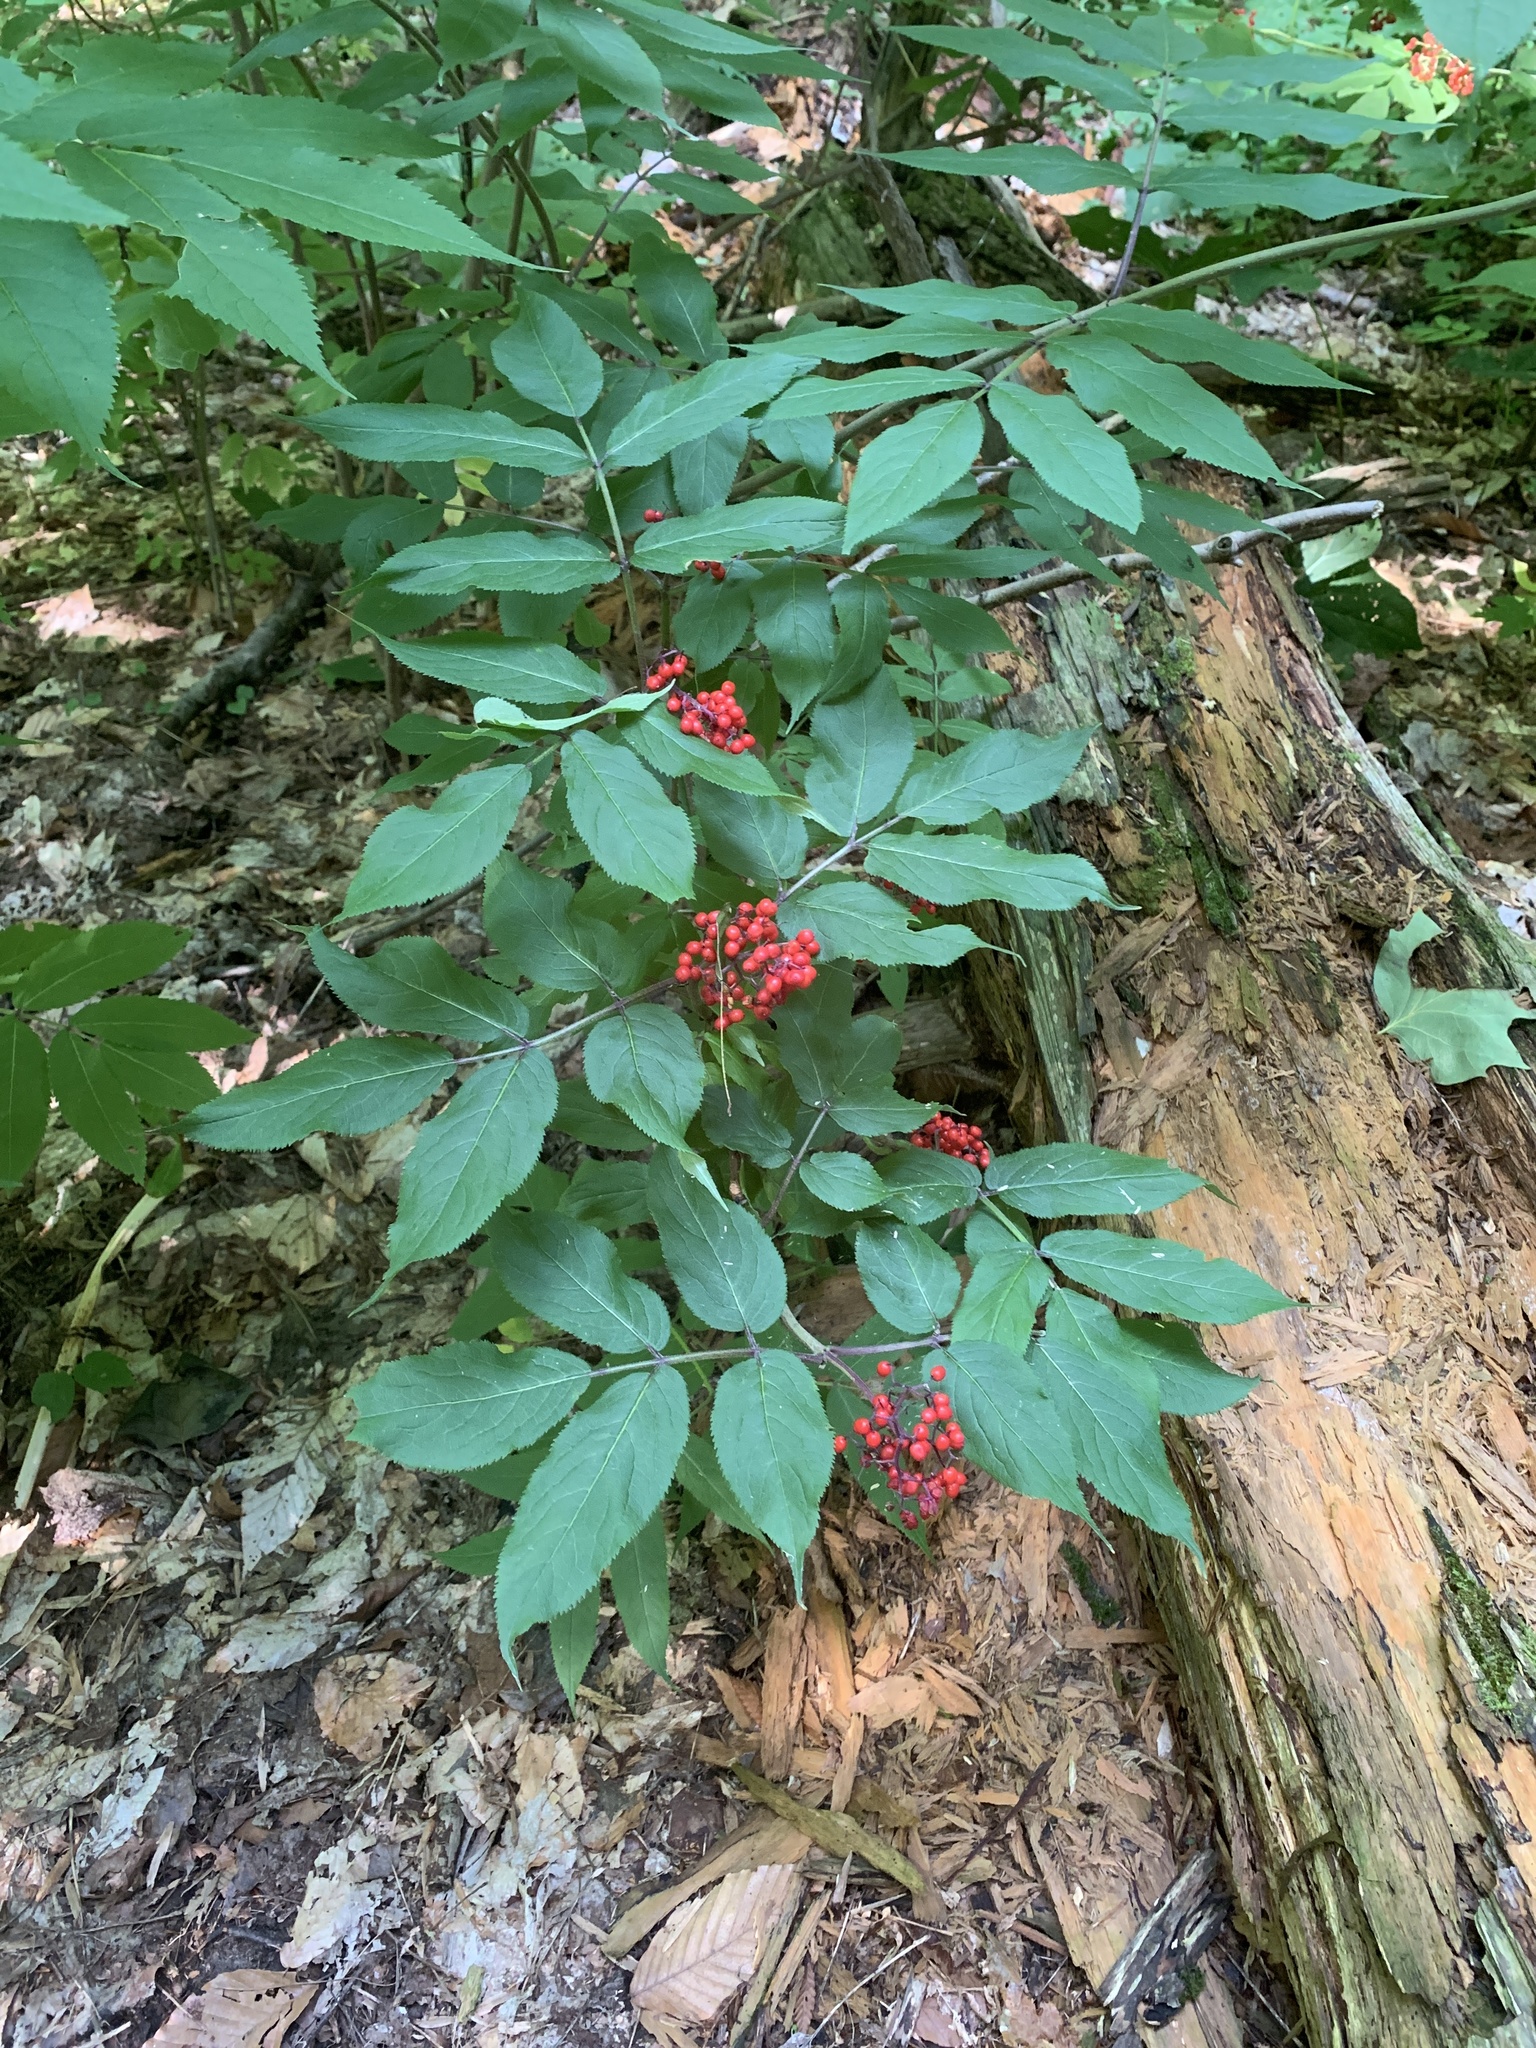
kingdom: Plantae
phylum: Tracheophyta
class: Magnoliopsida
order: Dipsacales
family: Viburnaceae
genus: Sambucus
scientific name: Sambucus racemosa
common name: Red-berried elder
